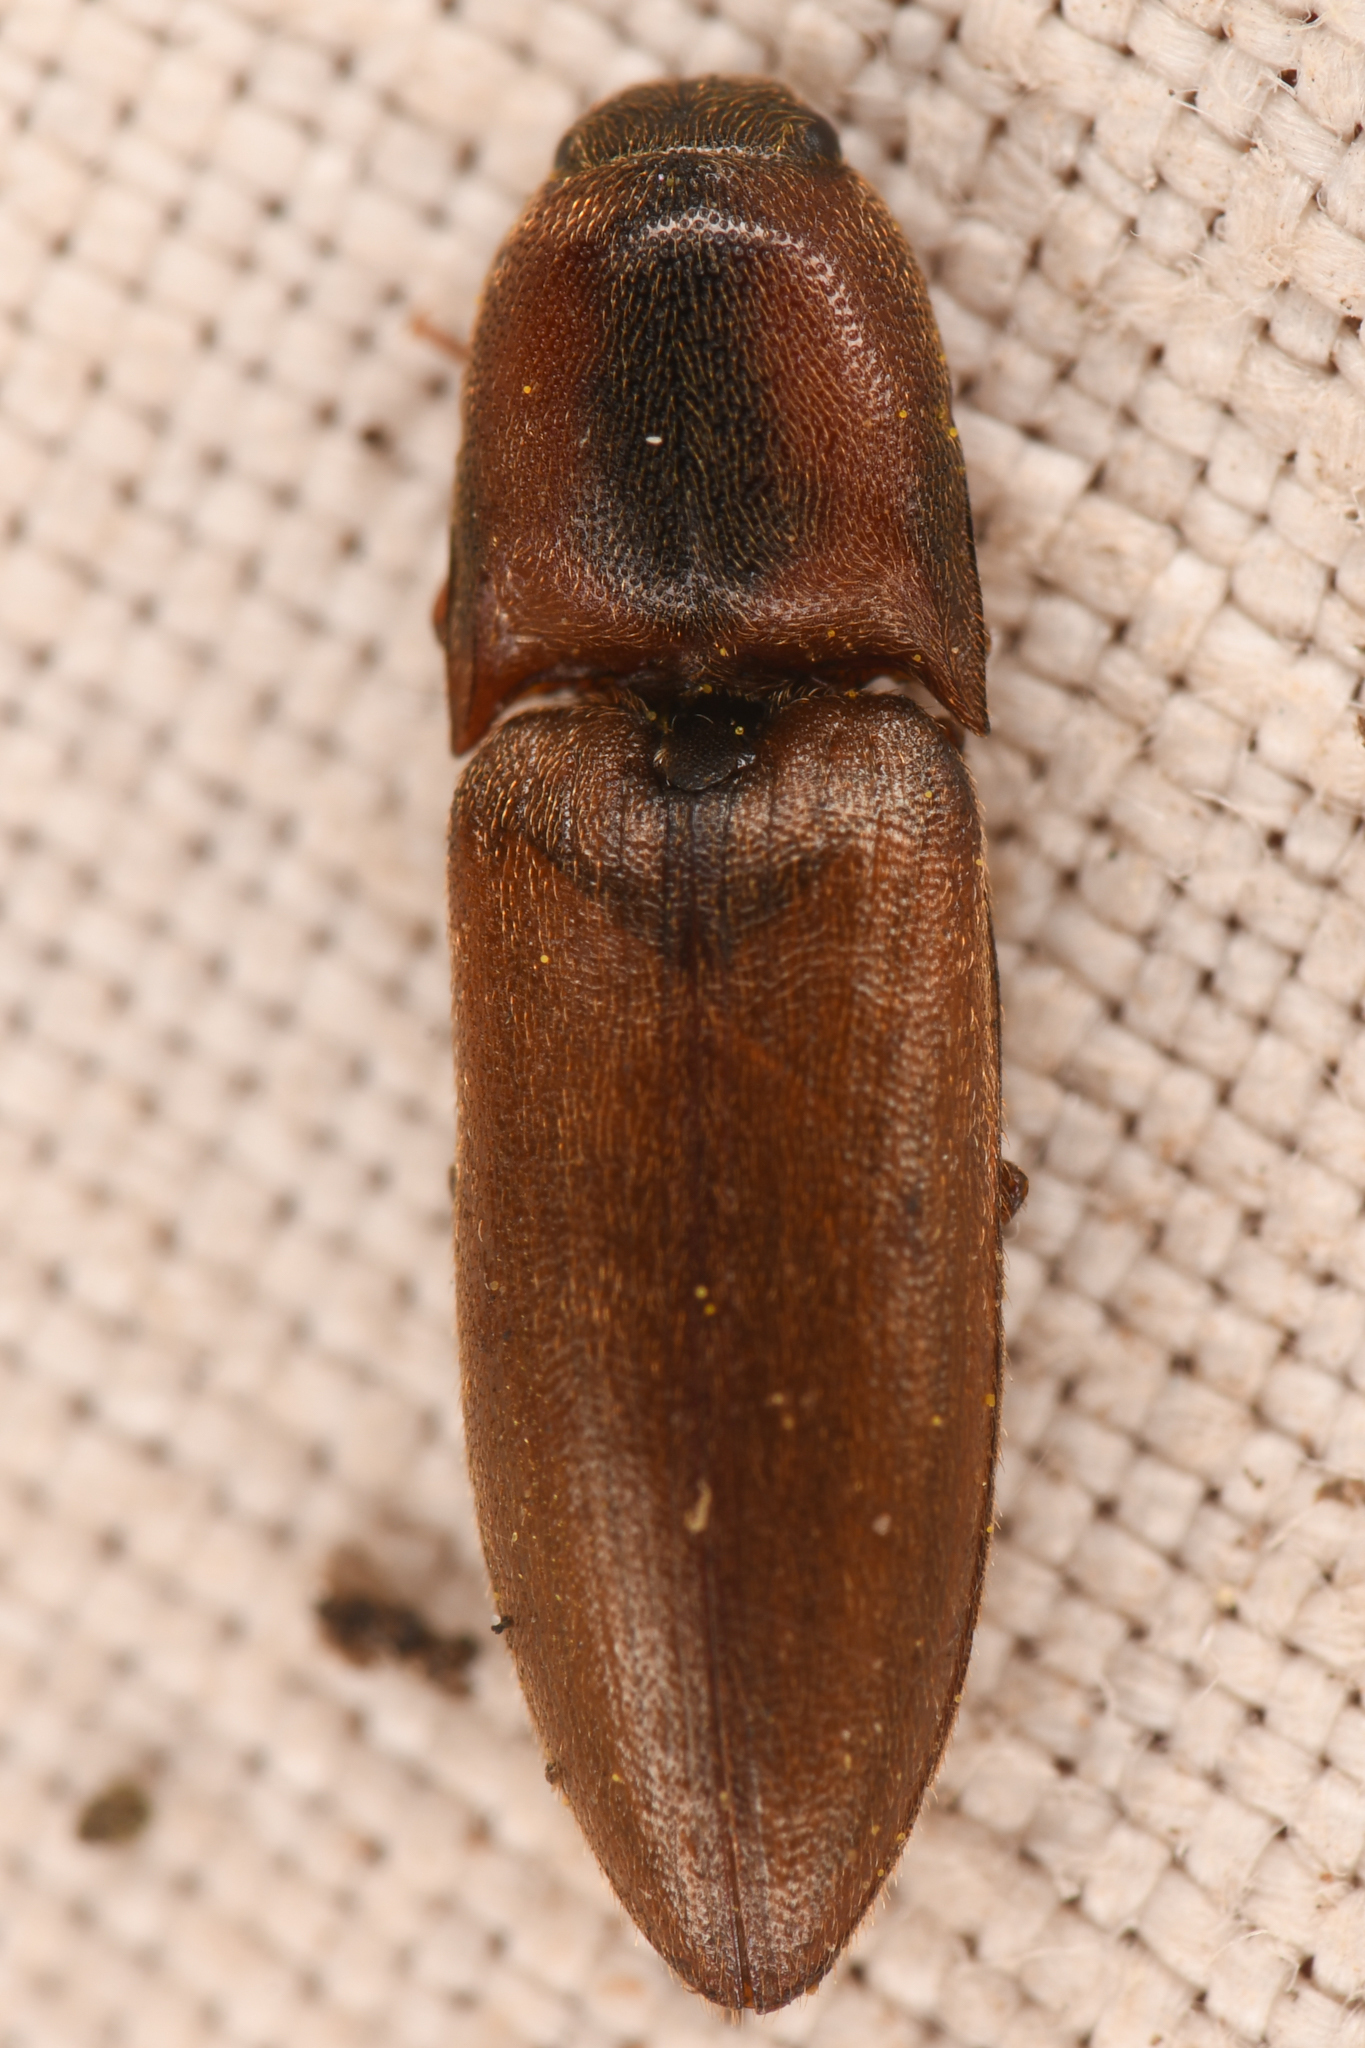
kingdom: Animalia
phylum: Arthropoda
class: Insecta
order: Coleoptera
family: Elateridae
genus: Sericus
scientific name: Sericus incongruus
